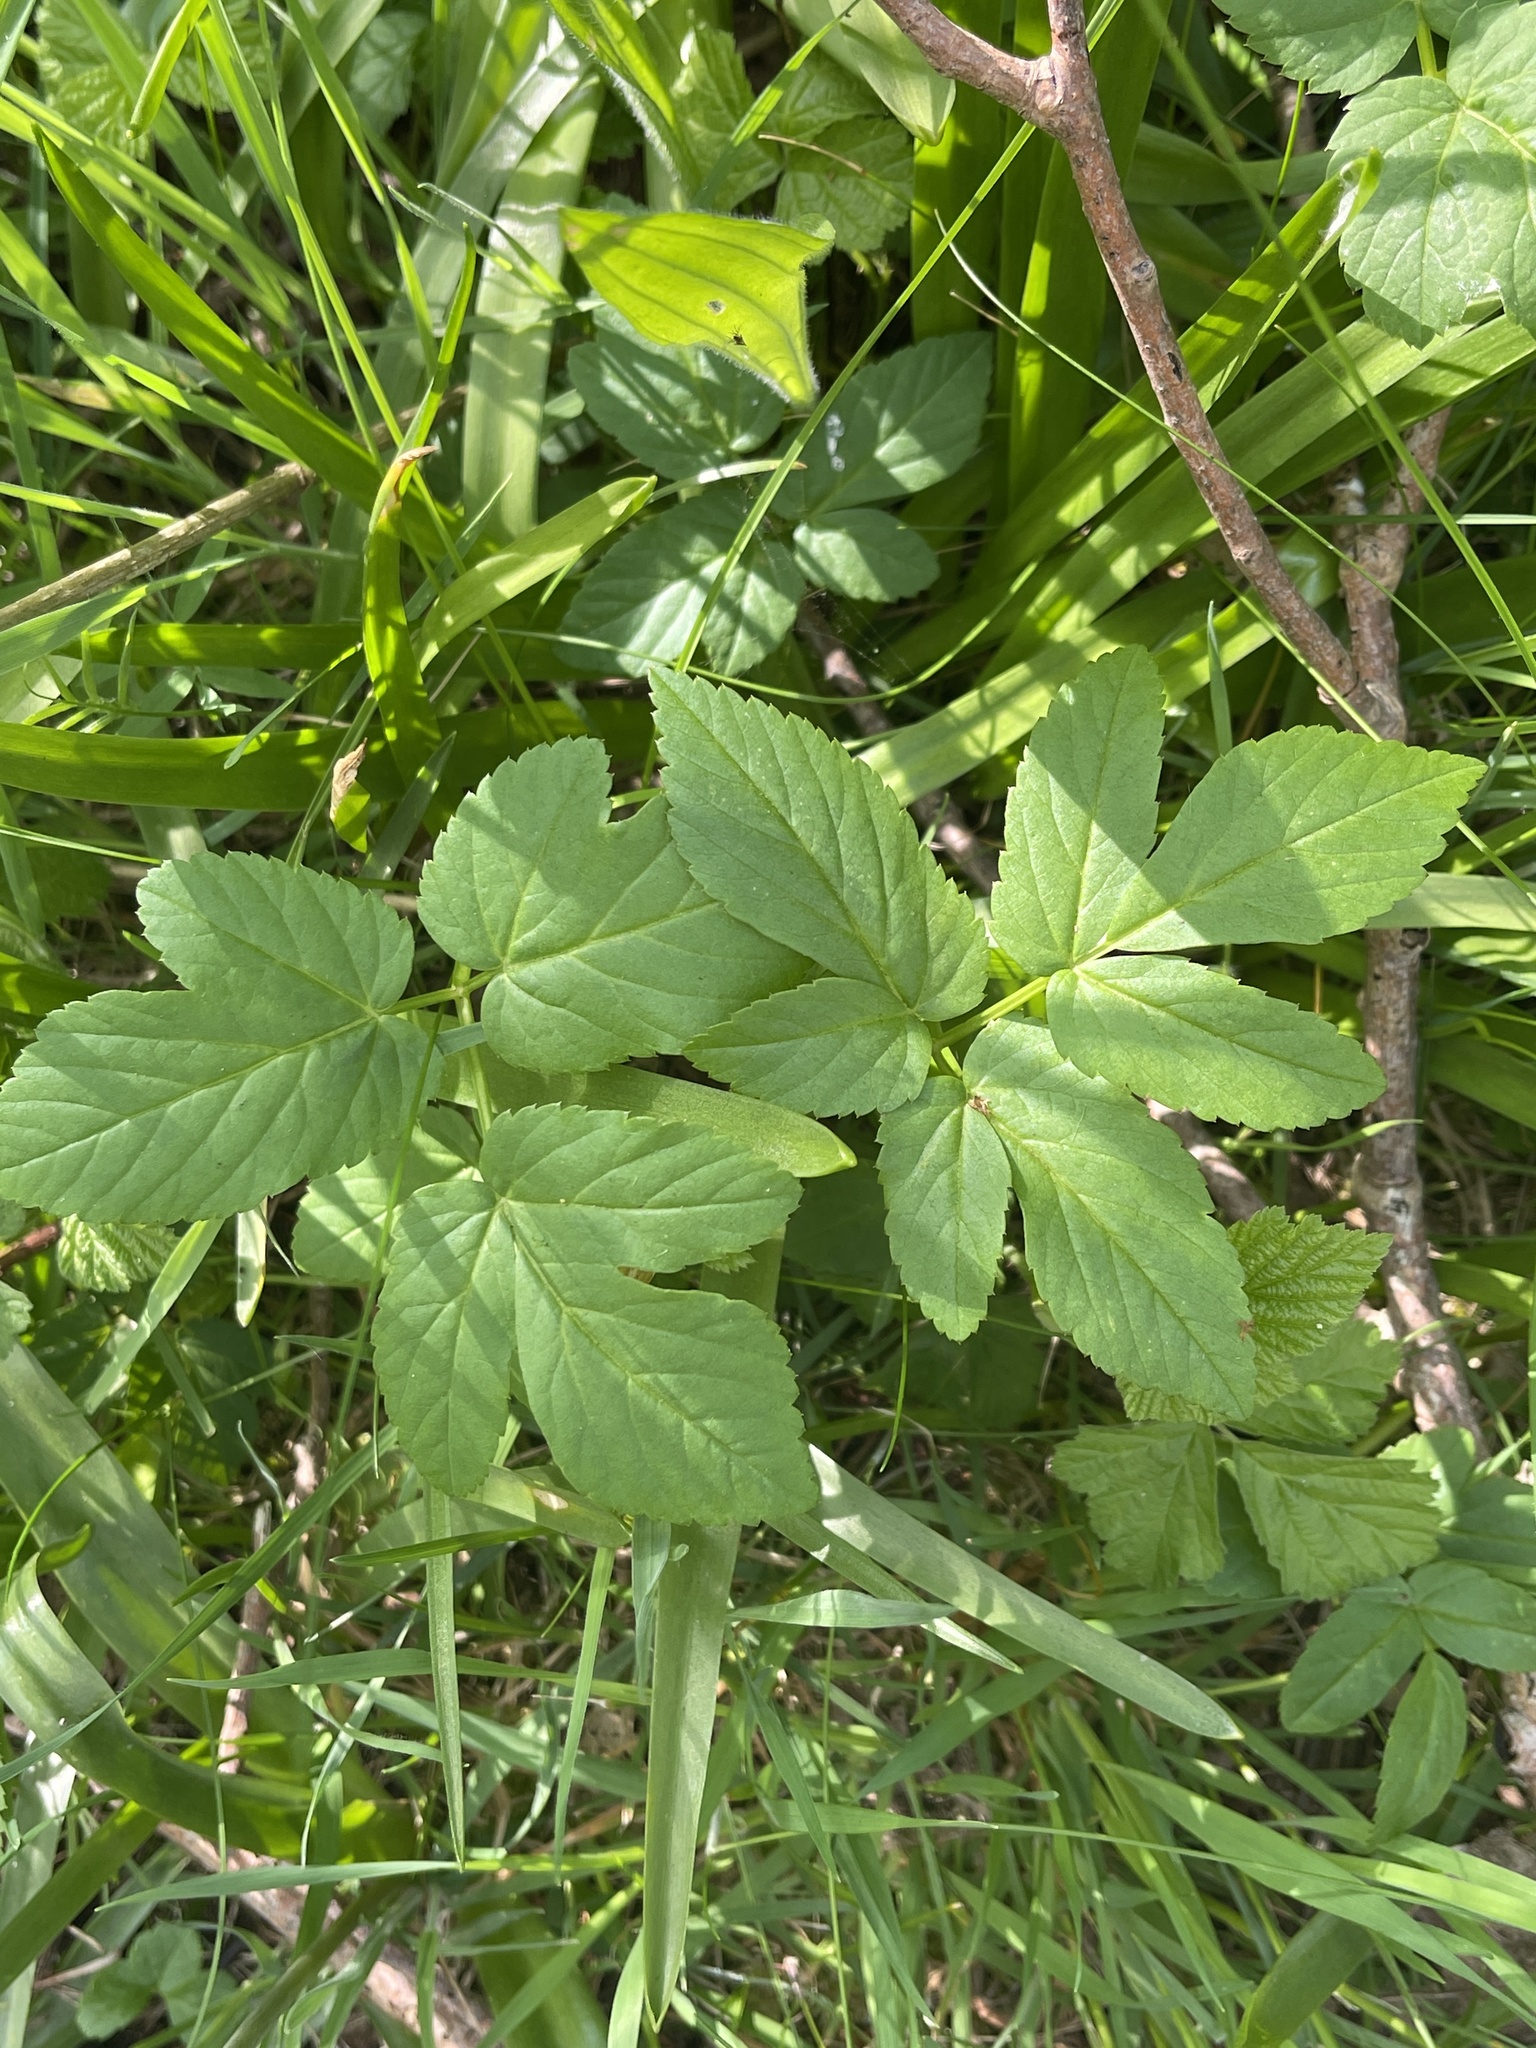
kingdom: Plantae
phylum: Tracheophyta
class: Magnoliopsida
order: Apiales
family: Apiaceae
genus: Aegopodium
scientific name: Aegopodium podagraria
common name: Ground-elder
